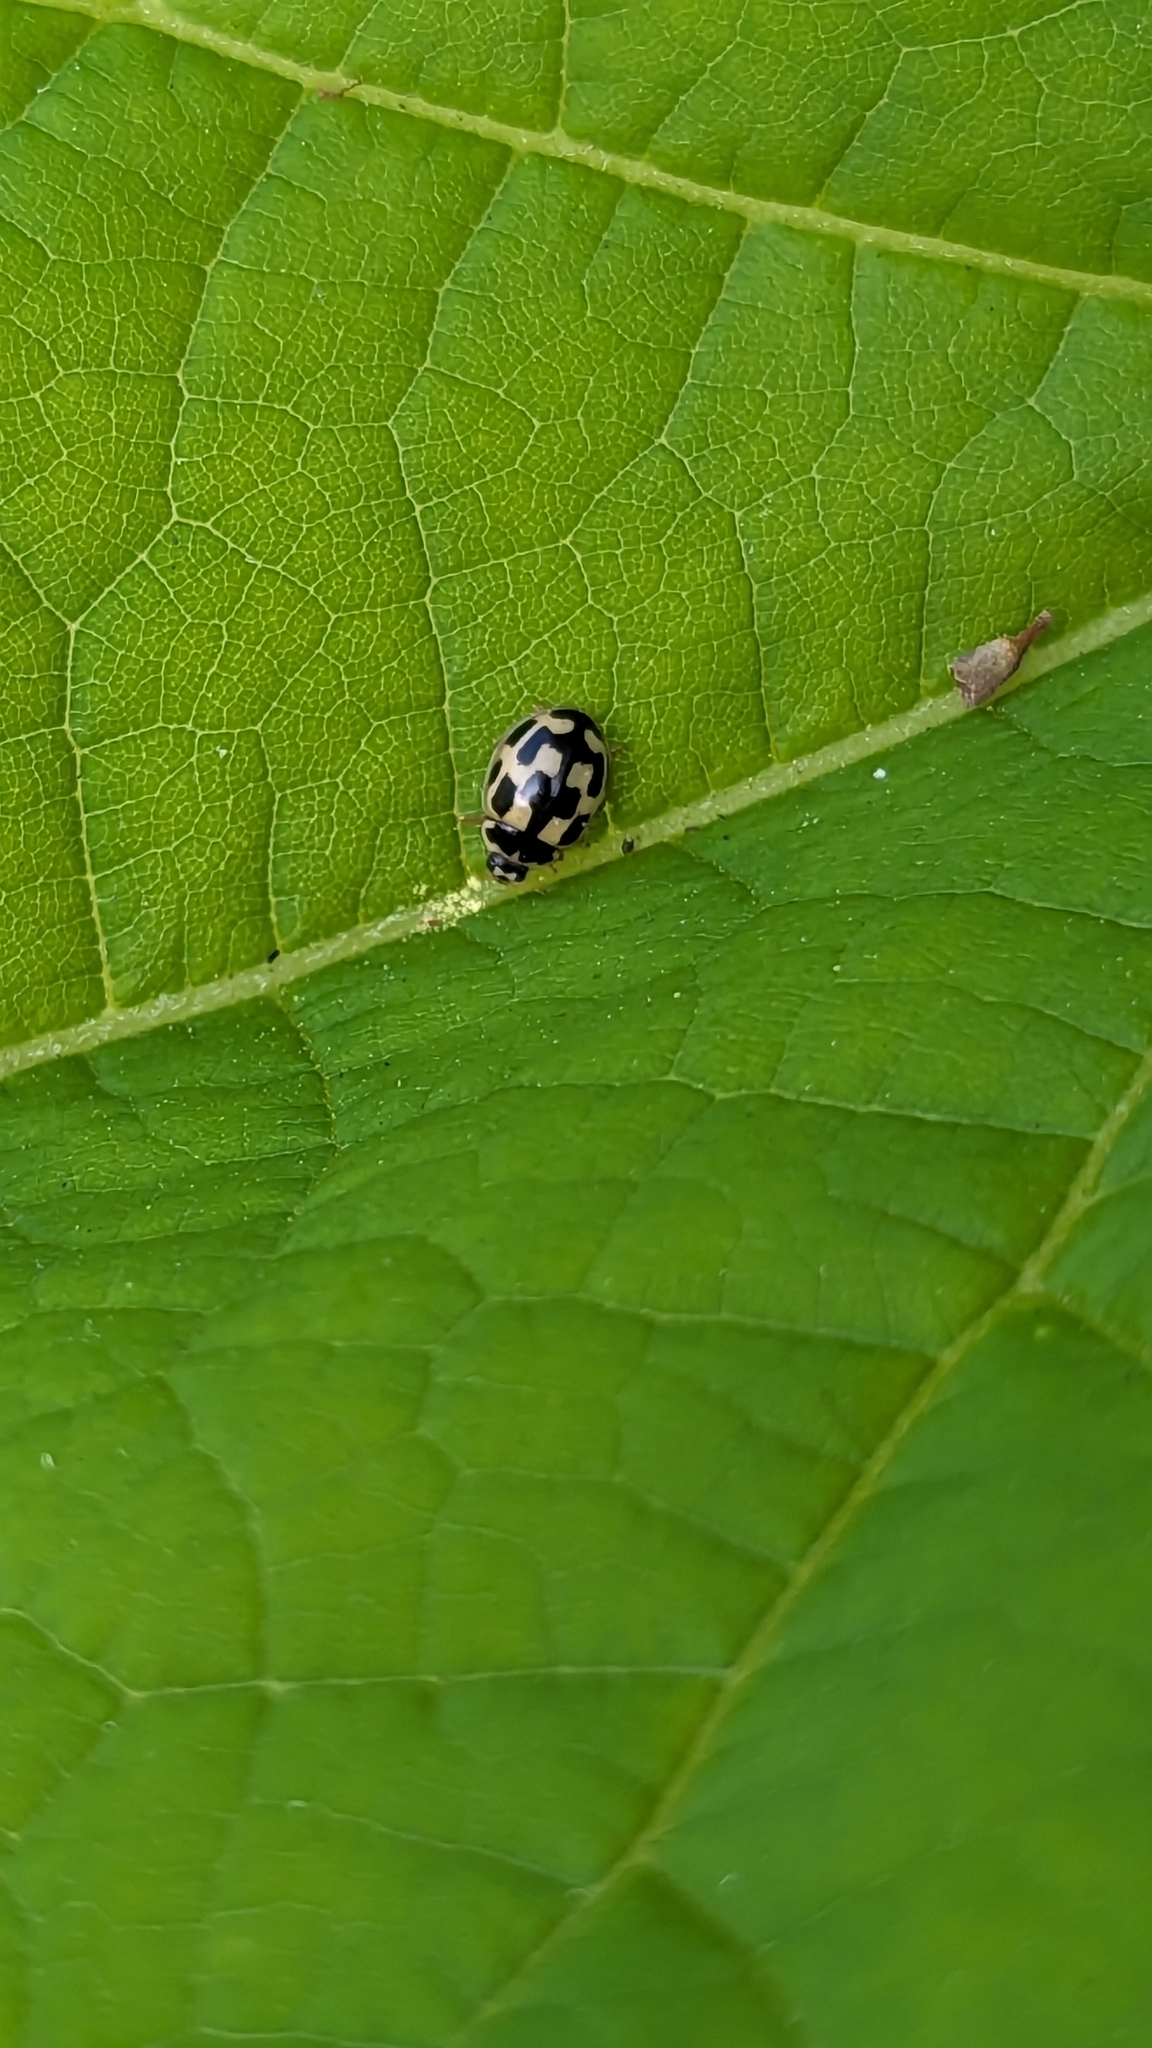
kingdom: Animalia
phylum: Arthropoda
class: Insecta
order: Coleoptera
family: Coccinellidae
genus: Propylaea
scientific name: Propylaea quatuordecimpunctata
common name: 14-spotted ladybird beetle
